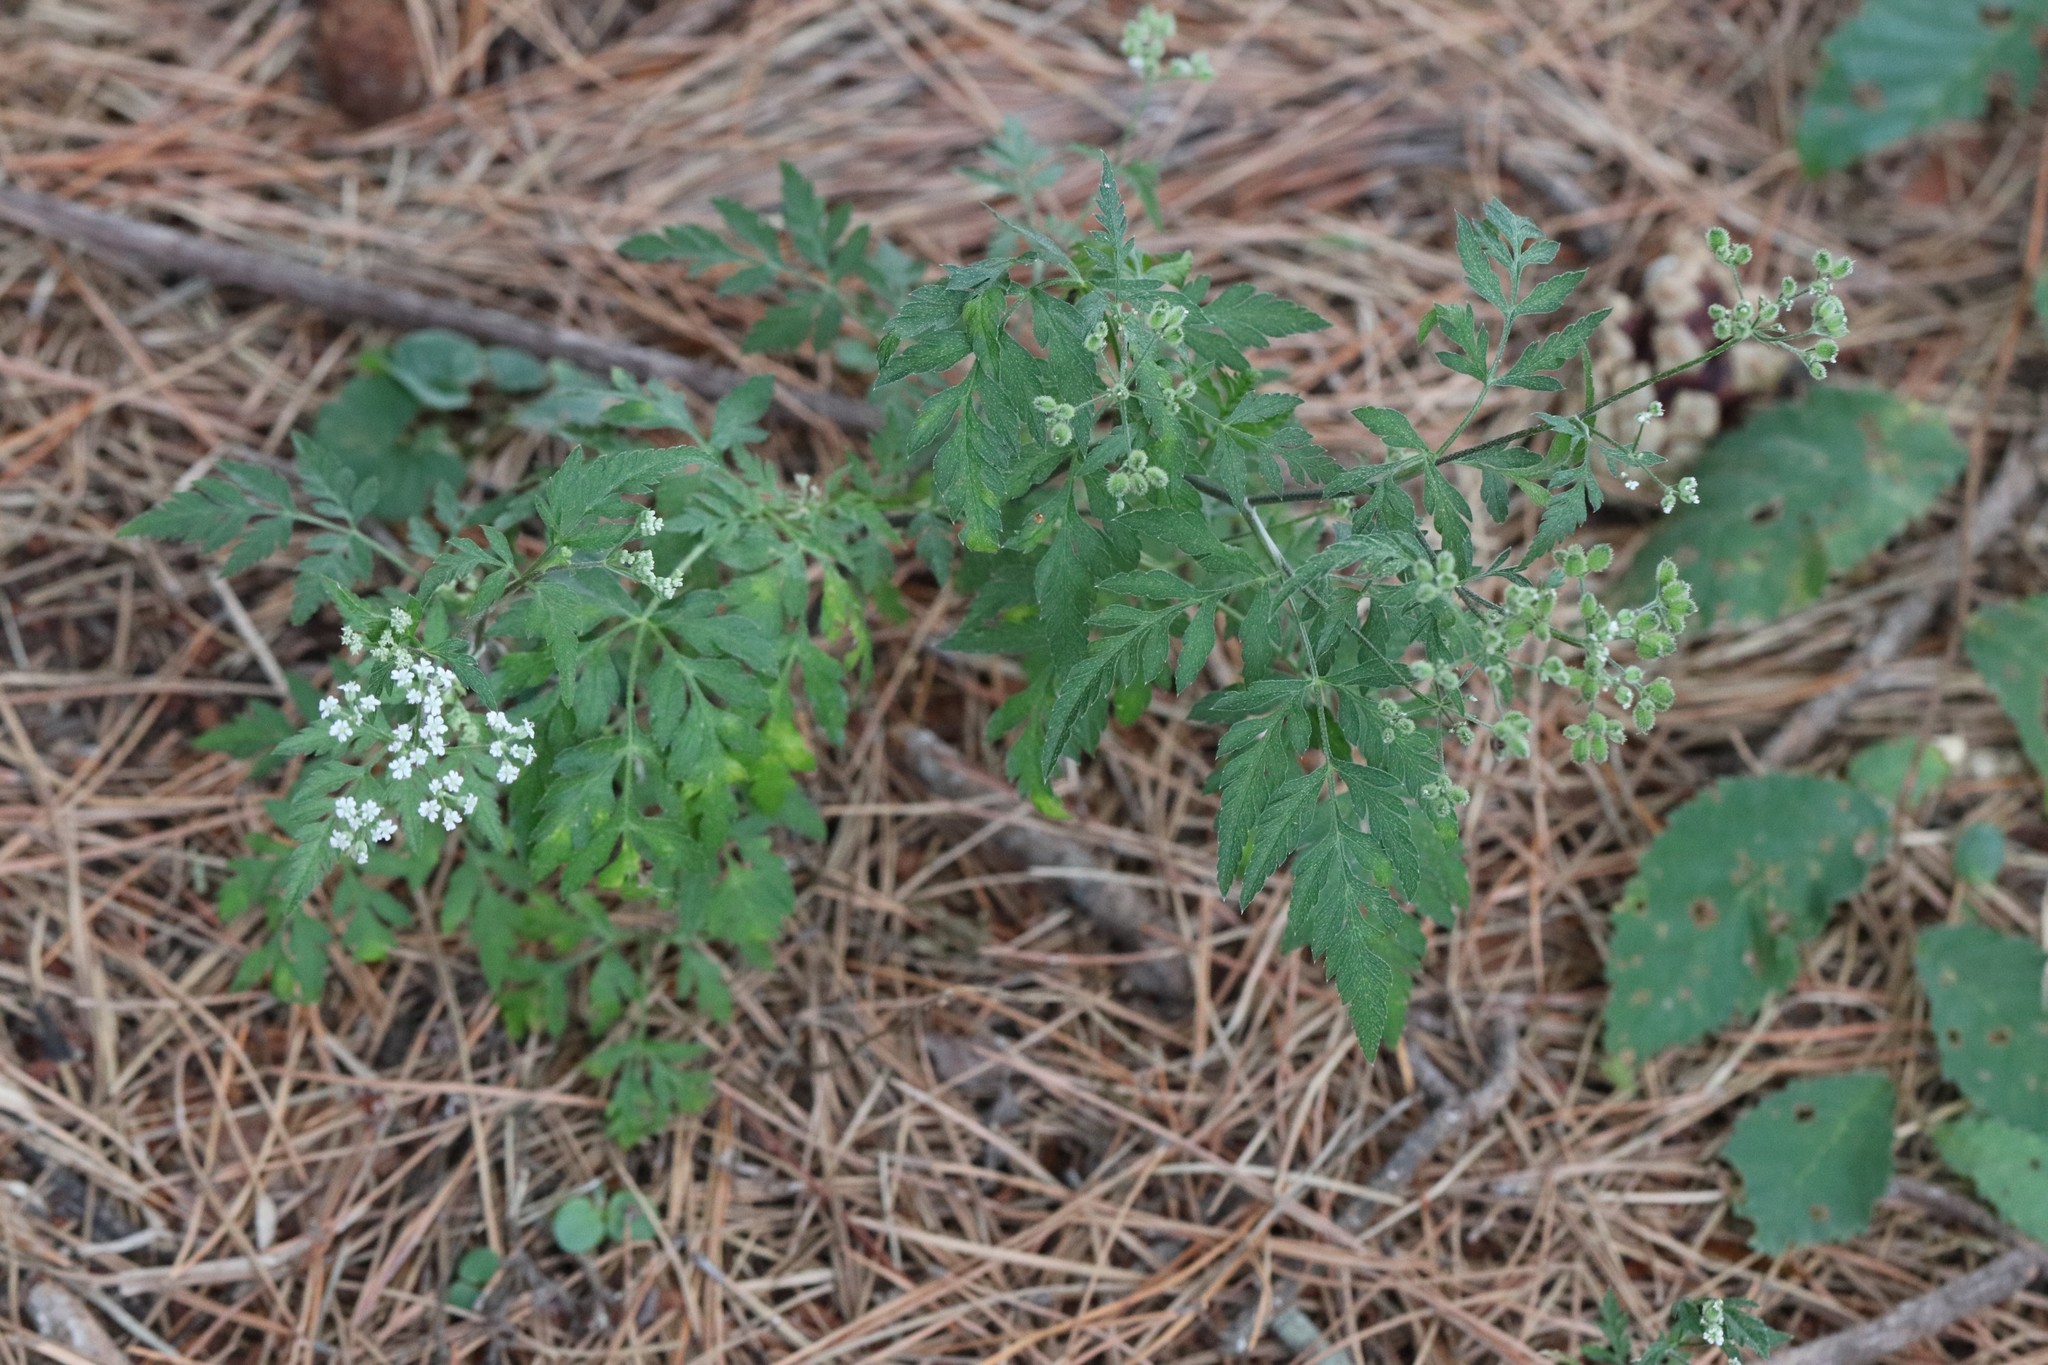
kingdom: Plantae
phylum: Tracheophyta
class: Magnoliopsida
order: Apiales
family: Apiaceae
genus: Torilis
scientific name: Torilis japonica
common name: Upright hedge-parsley
